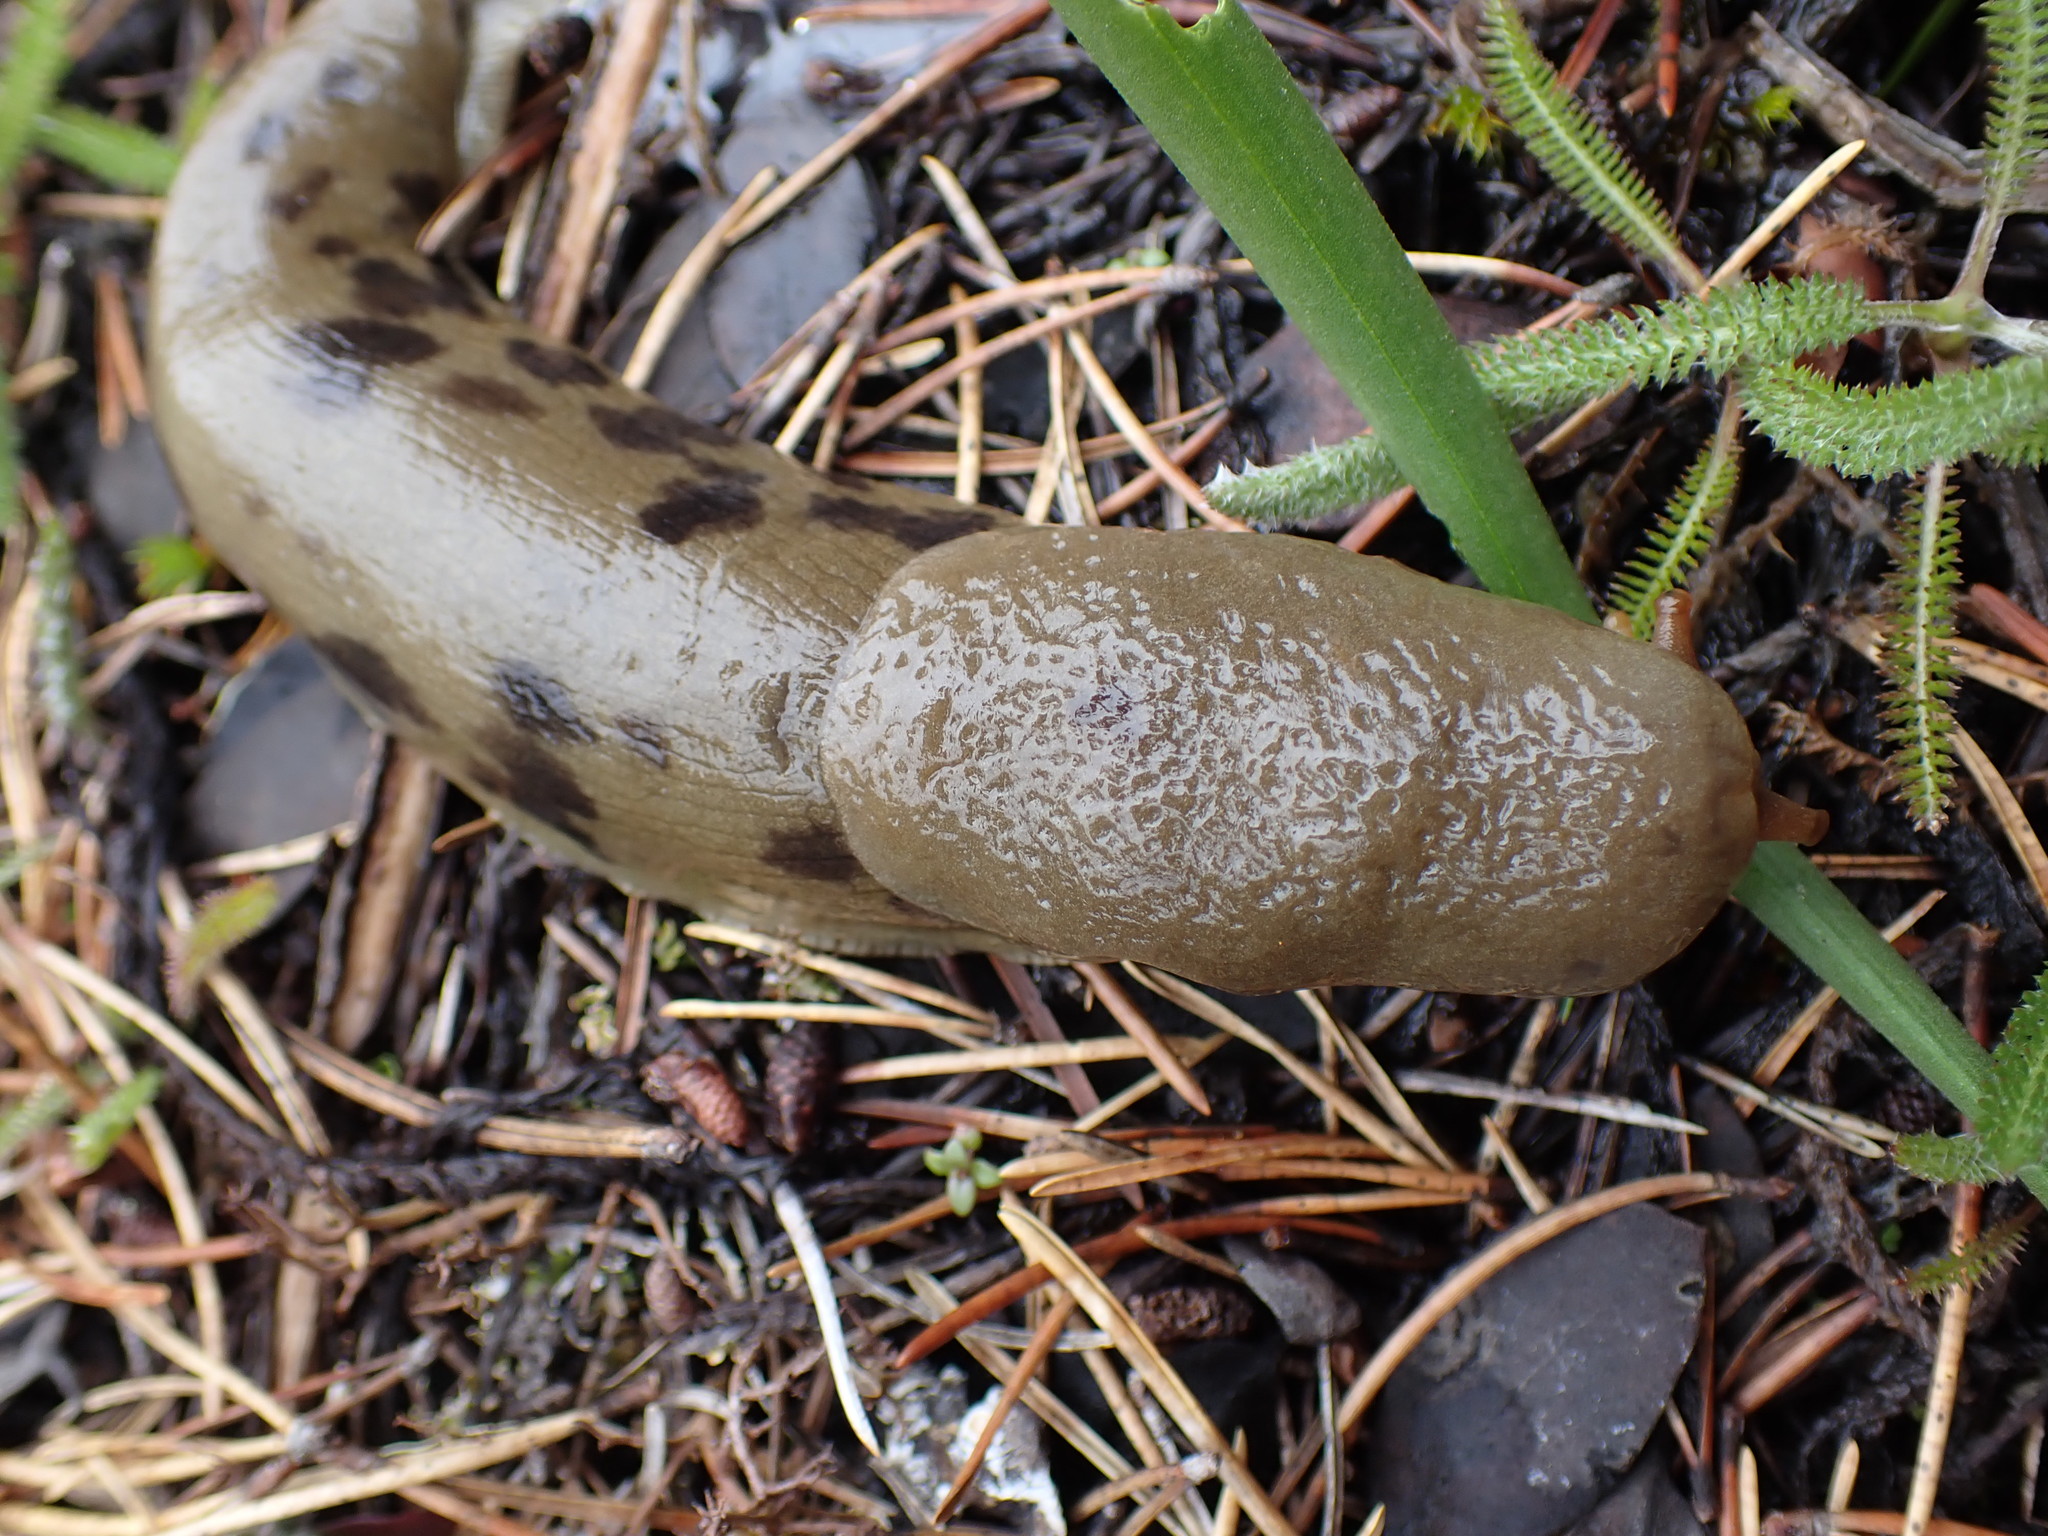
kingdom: Animalia
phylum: Mollusca
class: Gastropoda
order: Stylommatophora
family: Ariolimacidae
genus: Ariolimax
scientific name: Ariolimax columbianus
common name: Pacific banana slug
